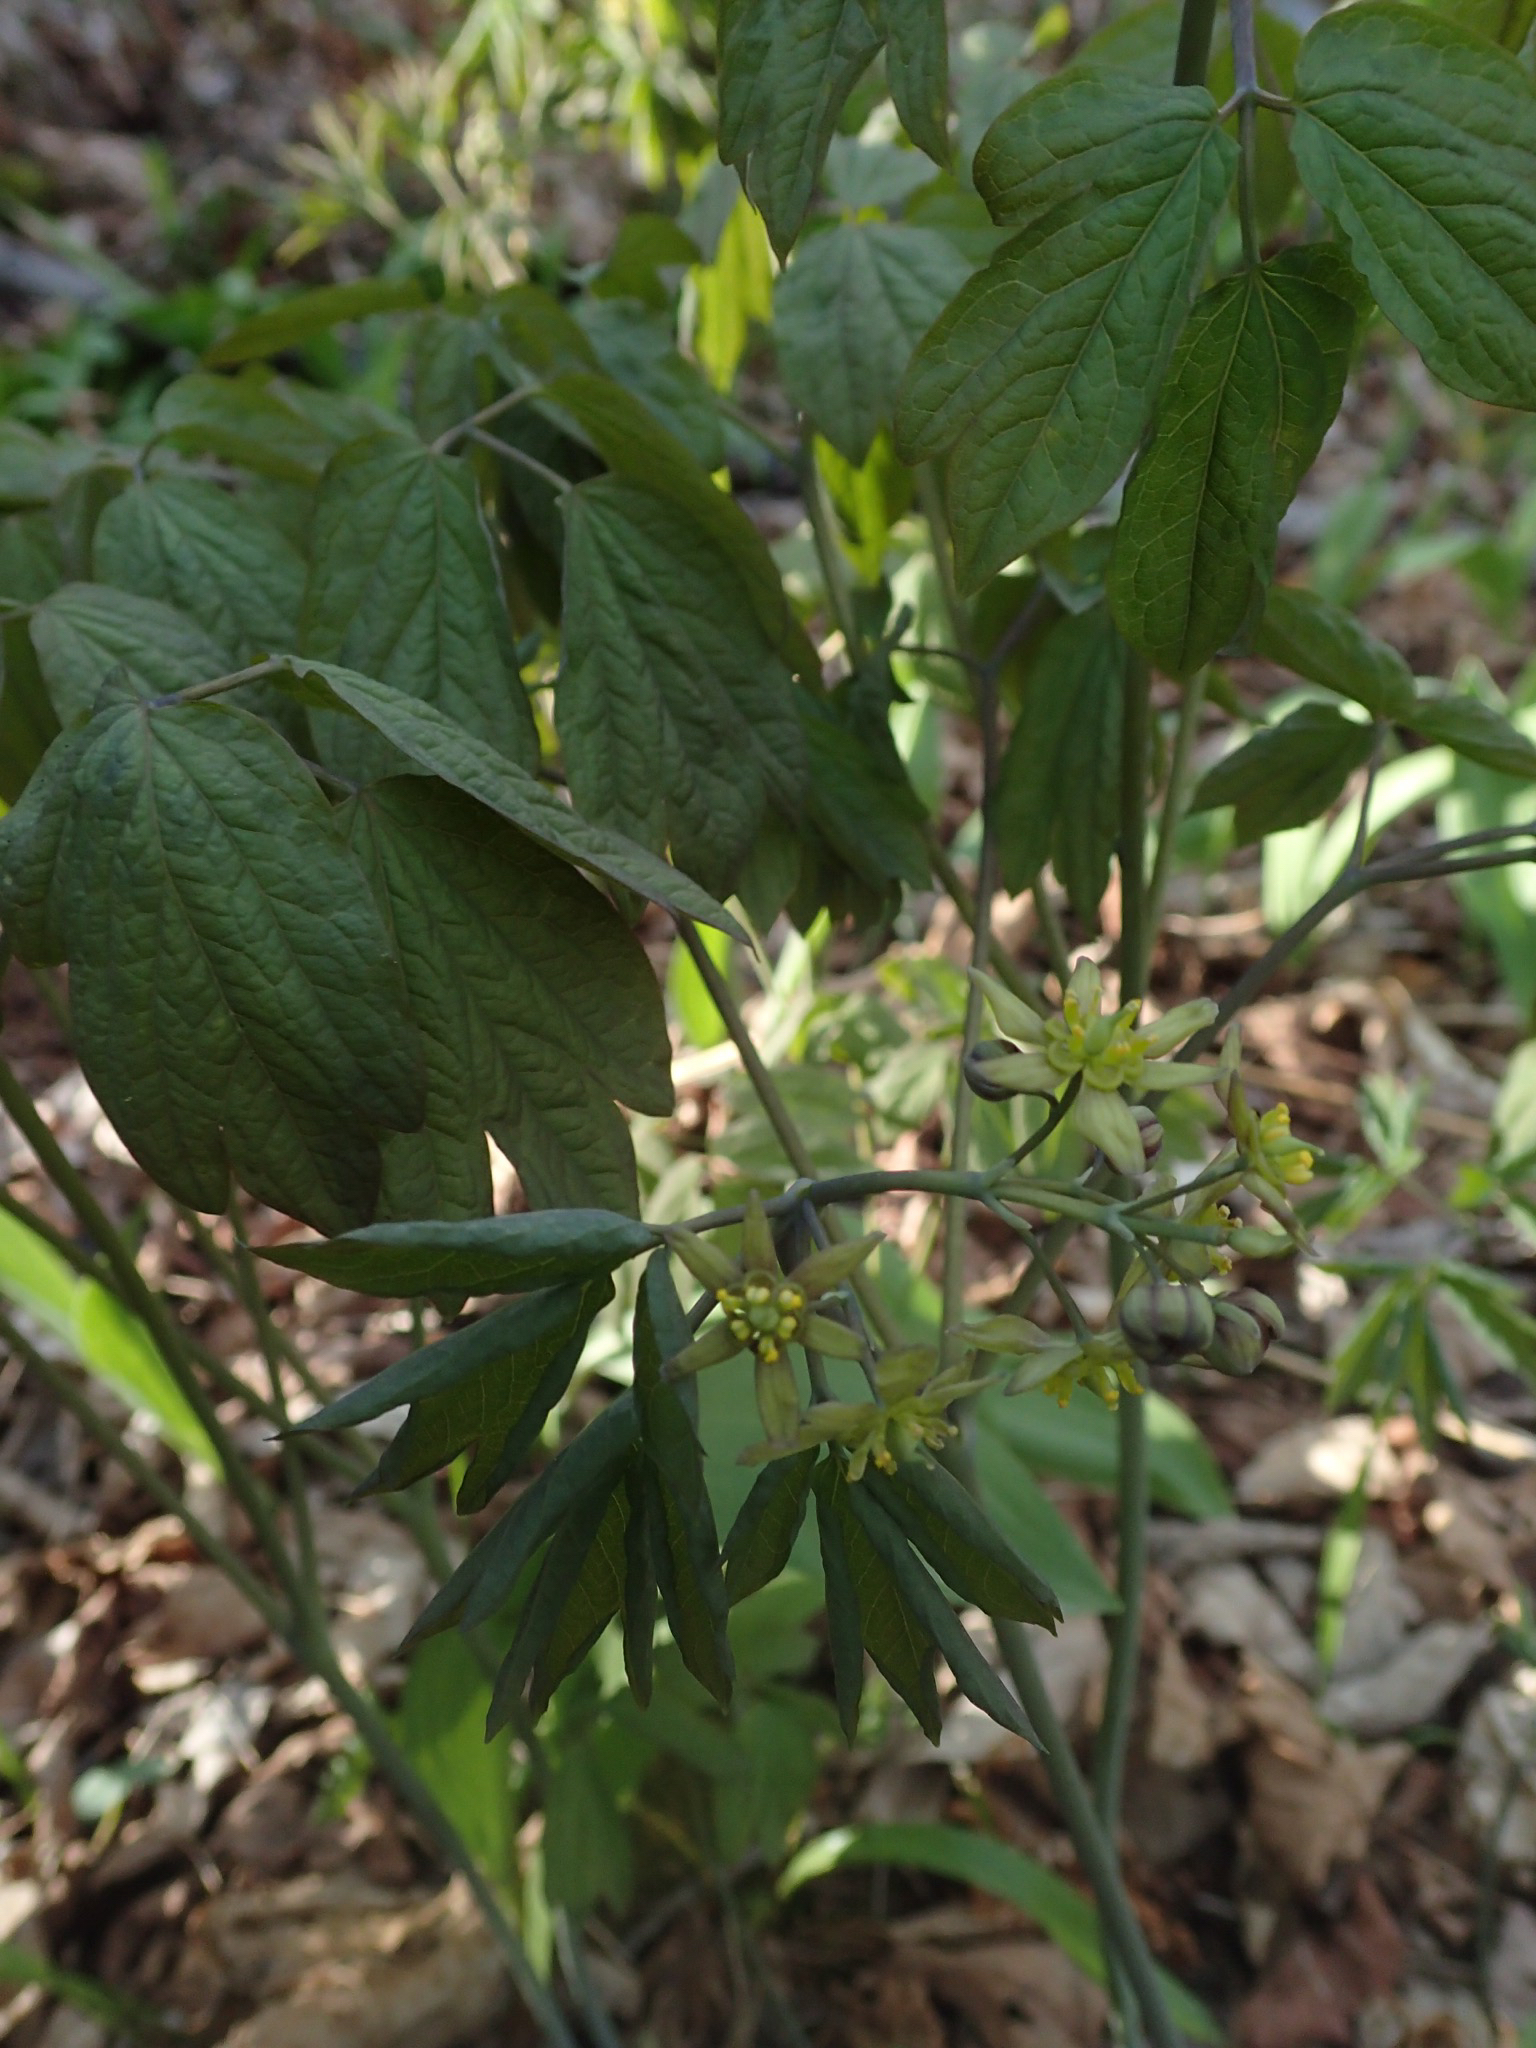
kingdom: Plantae
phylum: Tracheophyta
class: Magnoliopsida
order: Ranunculales
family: Berberidaceae
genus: Caulophyllum
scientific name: Caulophyllum thalictroides
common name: Blue cohosh
